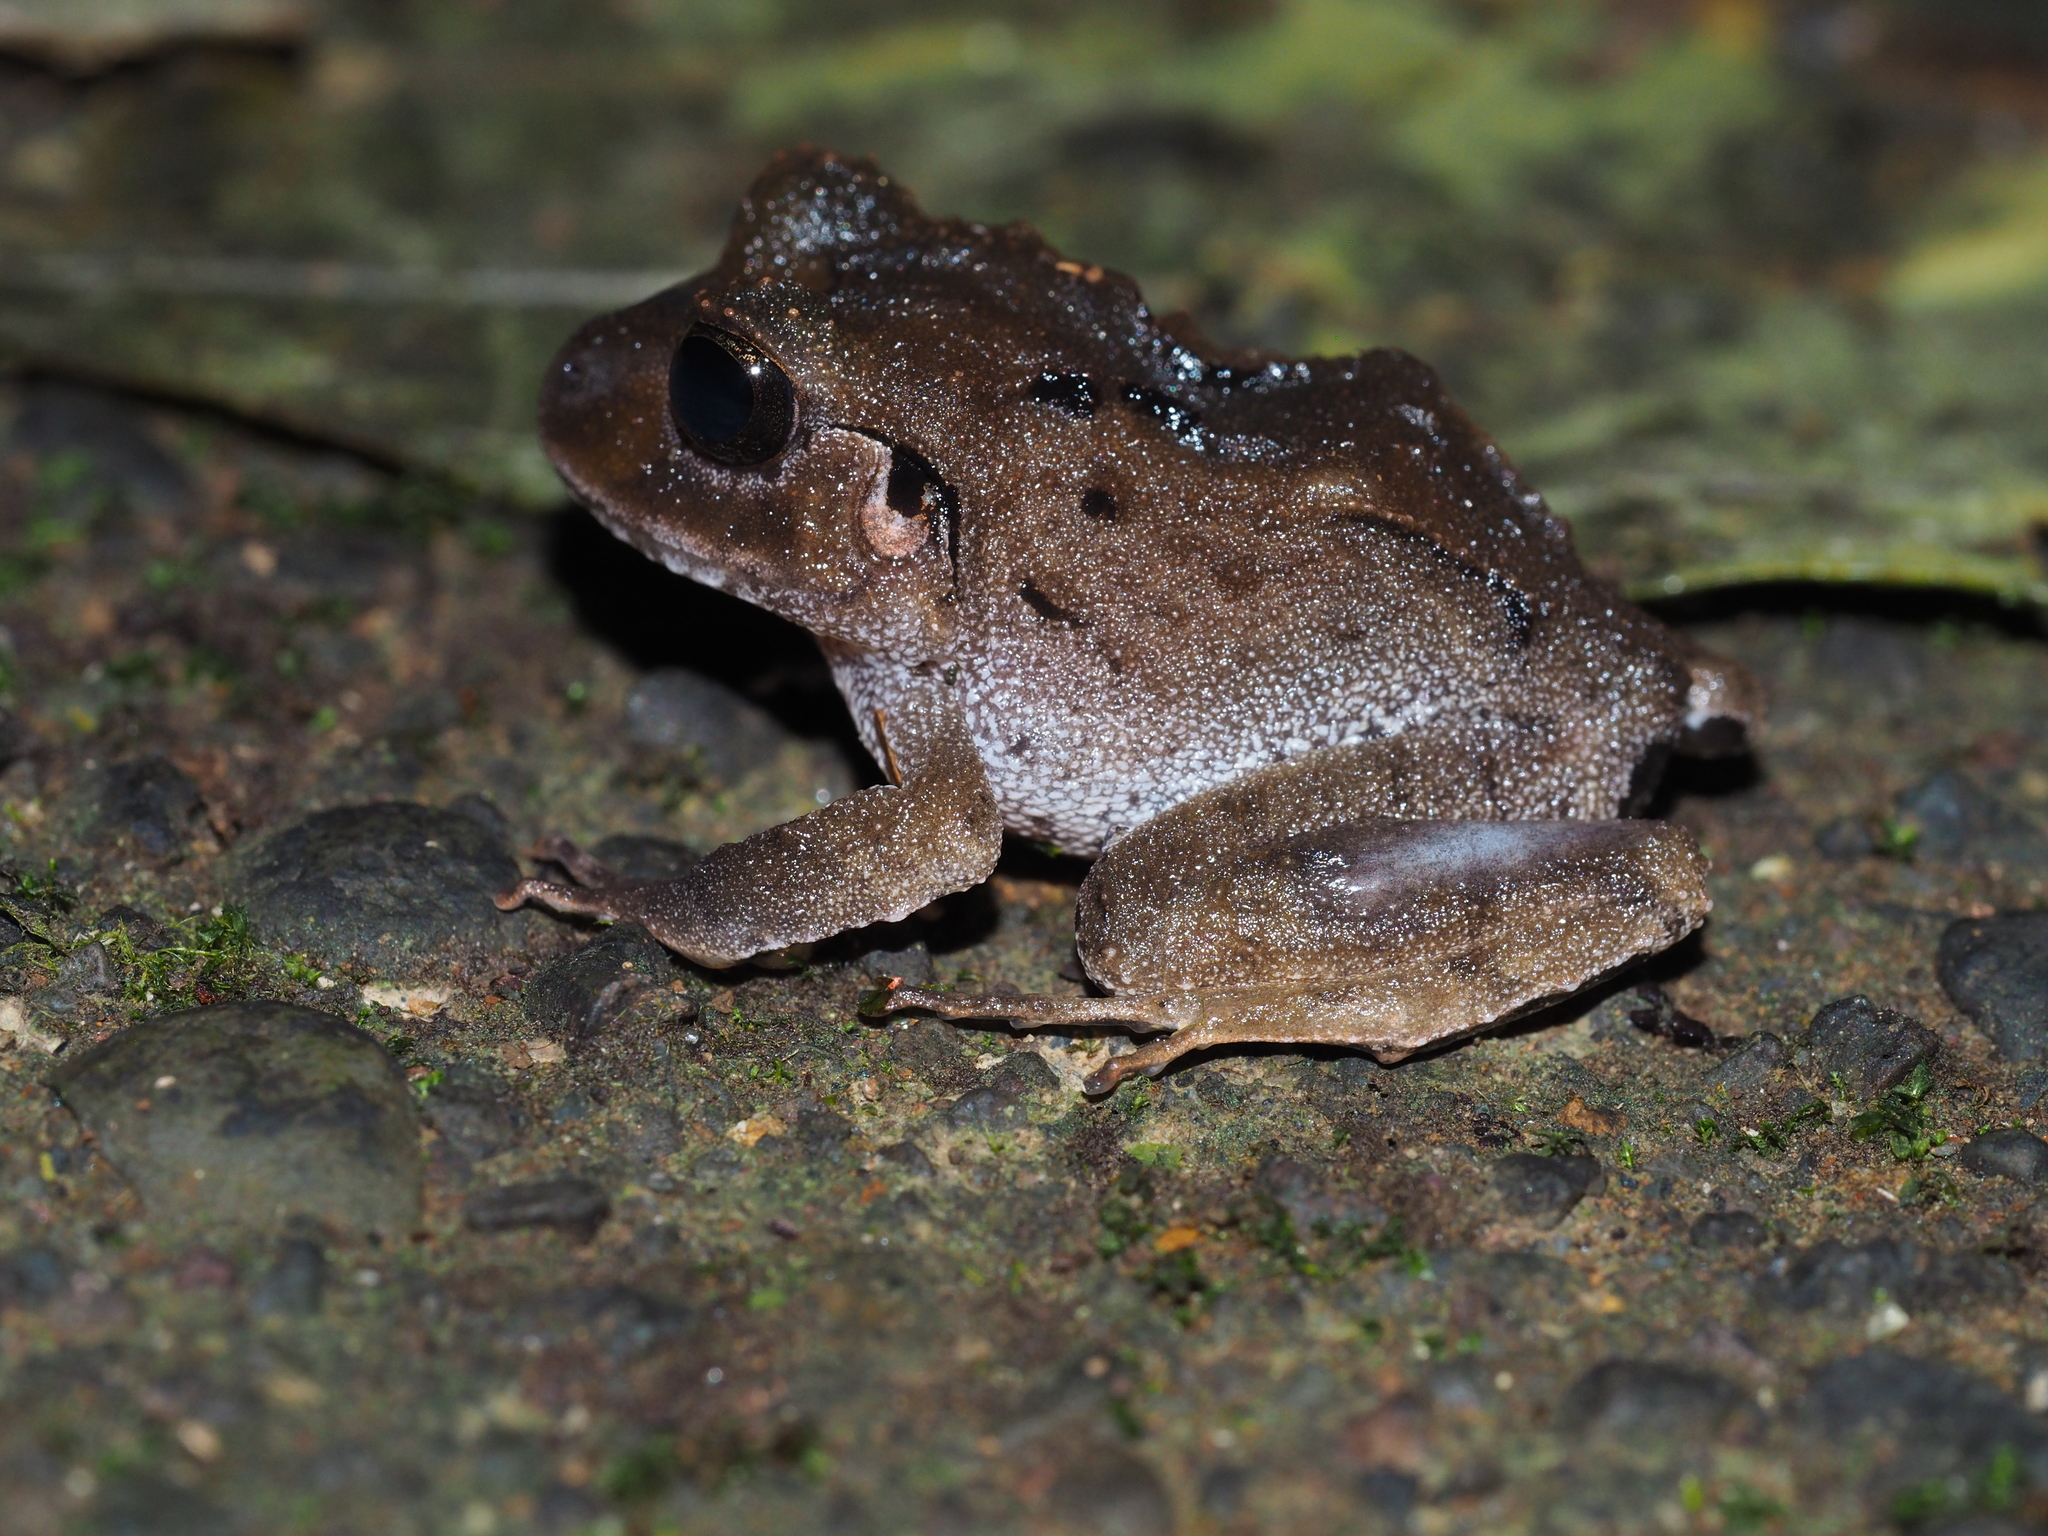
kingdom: Animalia
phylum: Chordata
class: Amphibia
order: Anura
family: Craugastoridae
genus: Craugastor
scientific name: Craugastor megacephalus
